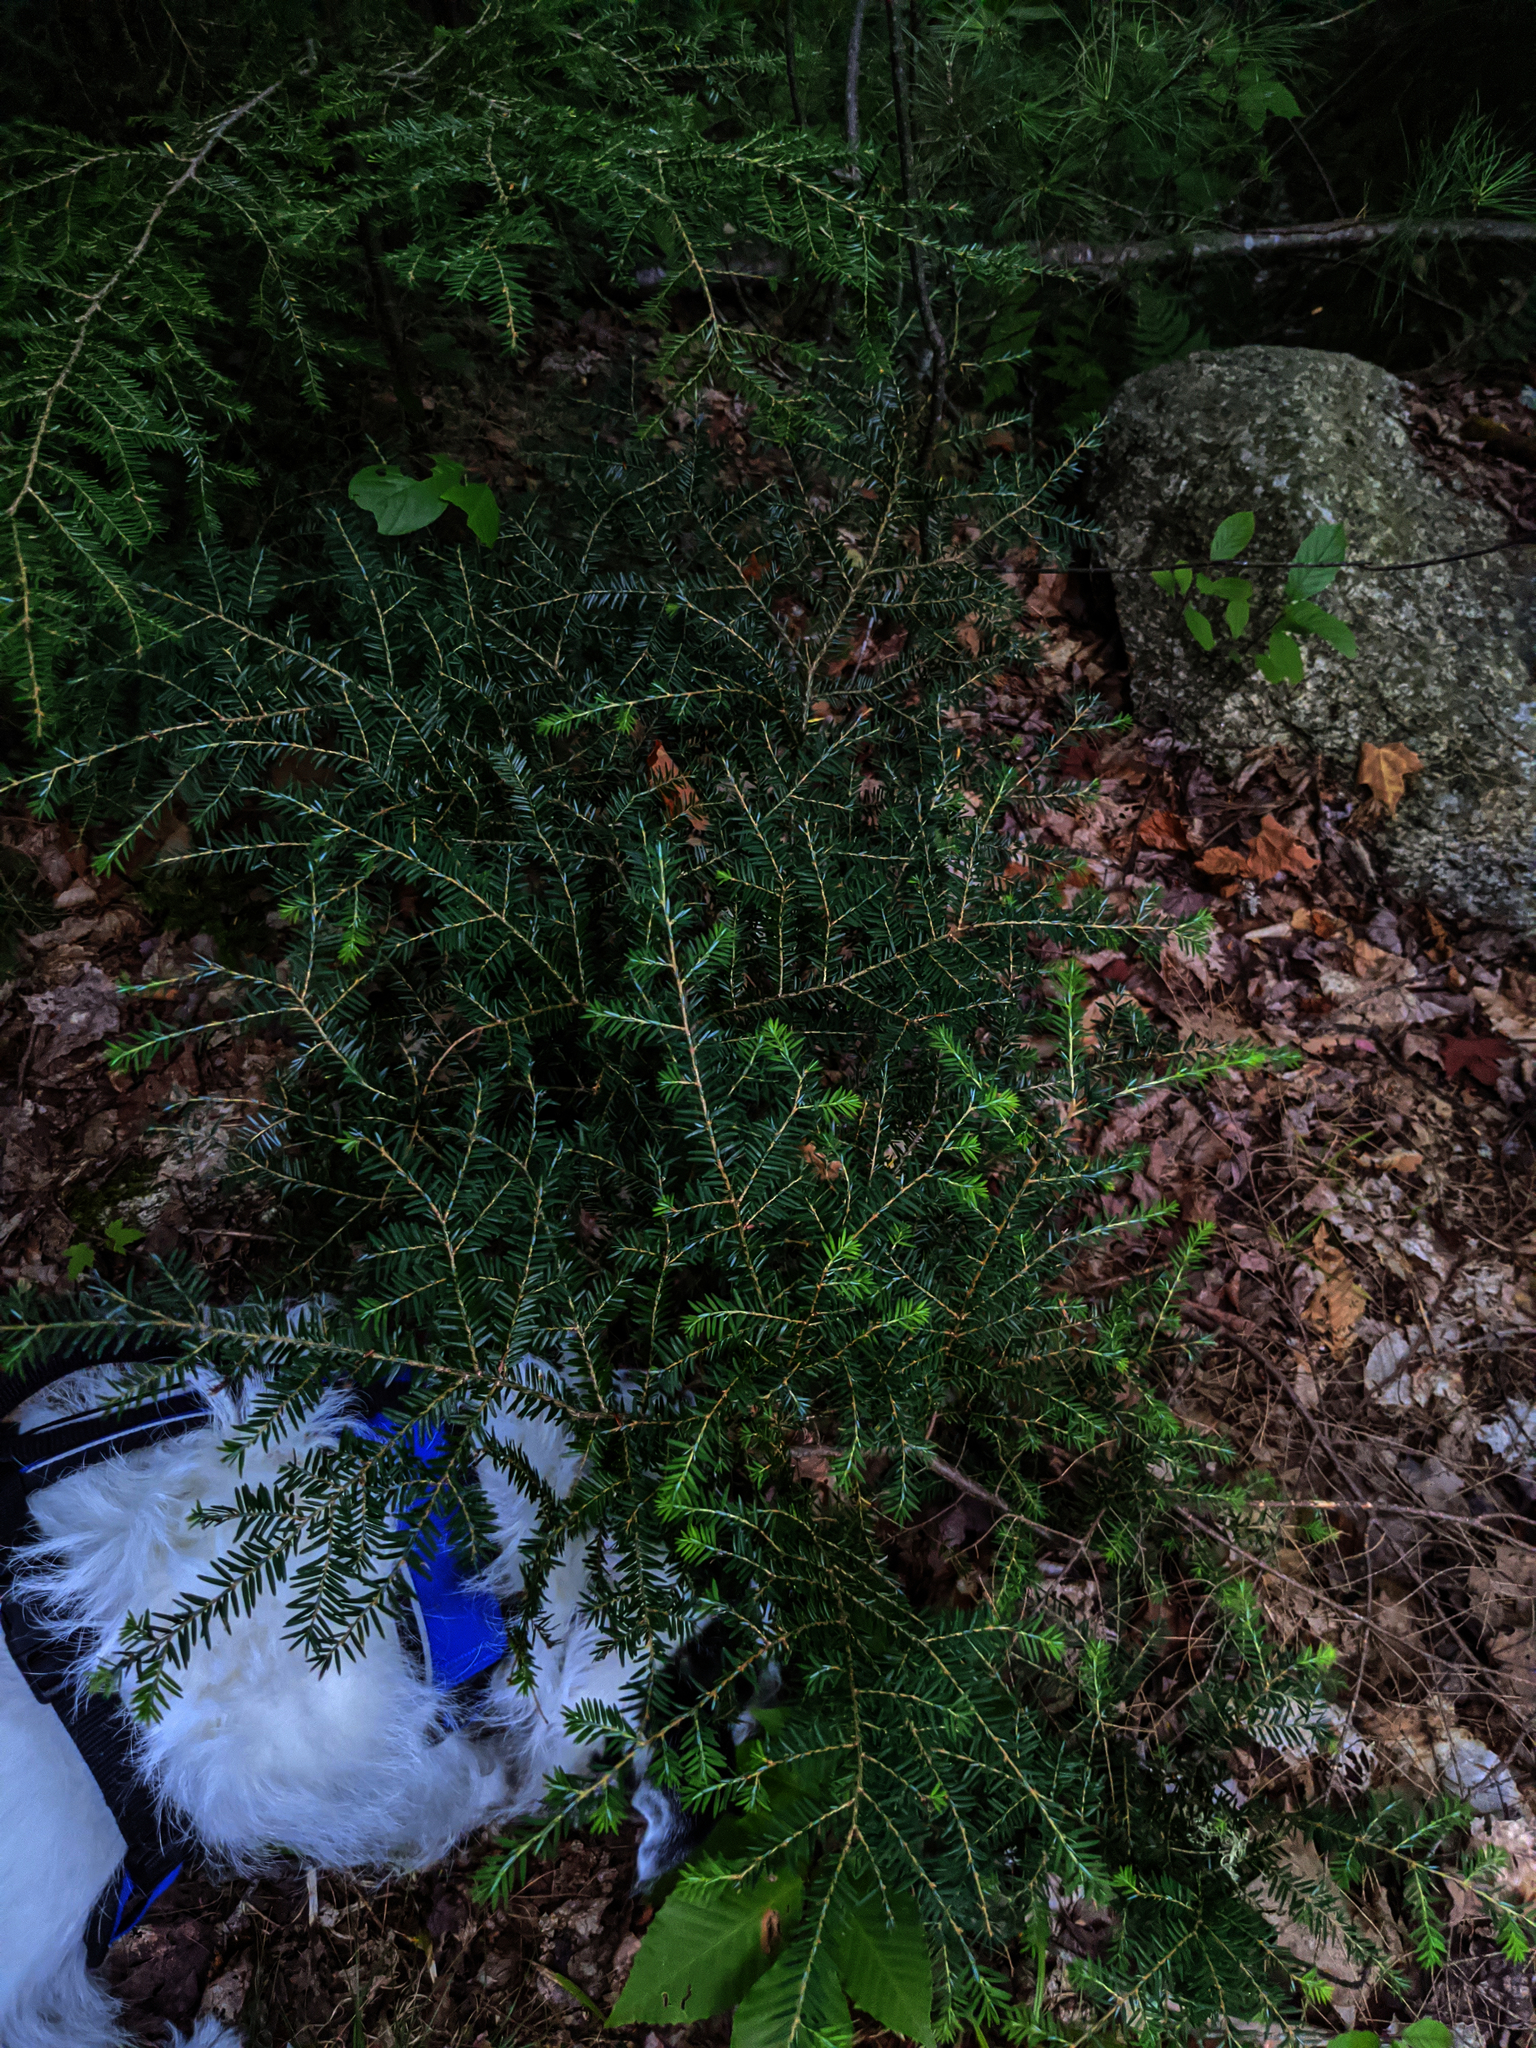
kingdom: Plantae
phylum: Tracheophyta
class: Pinopsida
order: Pinales
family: Pinaceae
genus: Tsuga
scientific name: Tsuga canadensis
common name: Eastern hemlock
